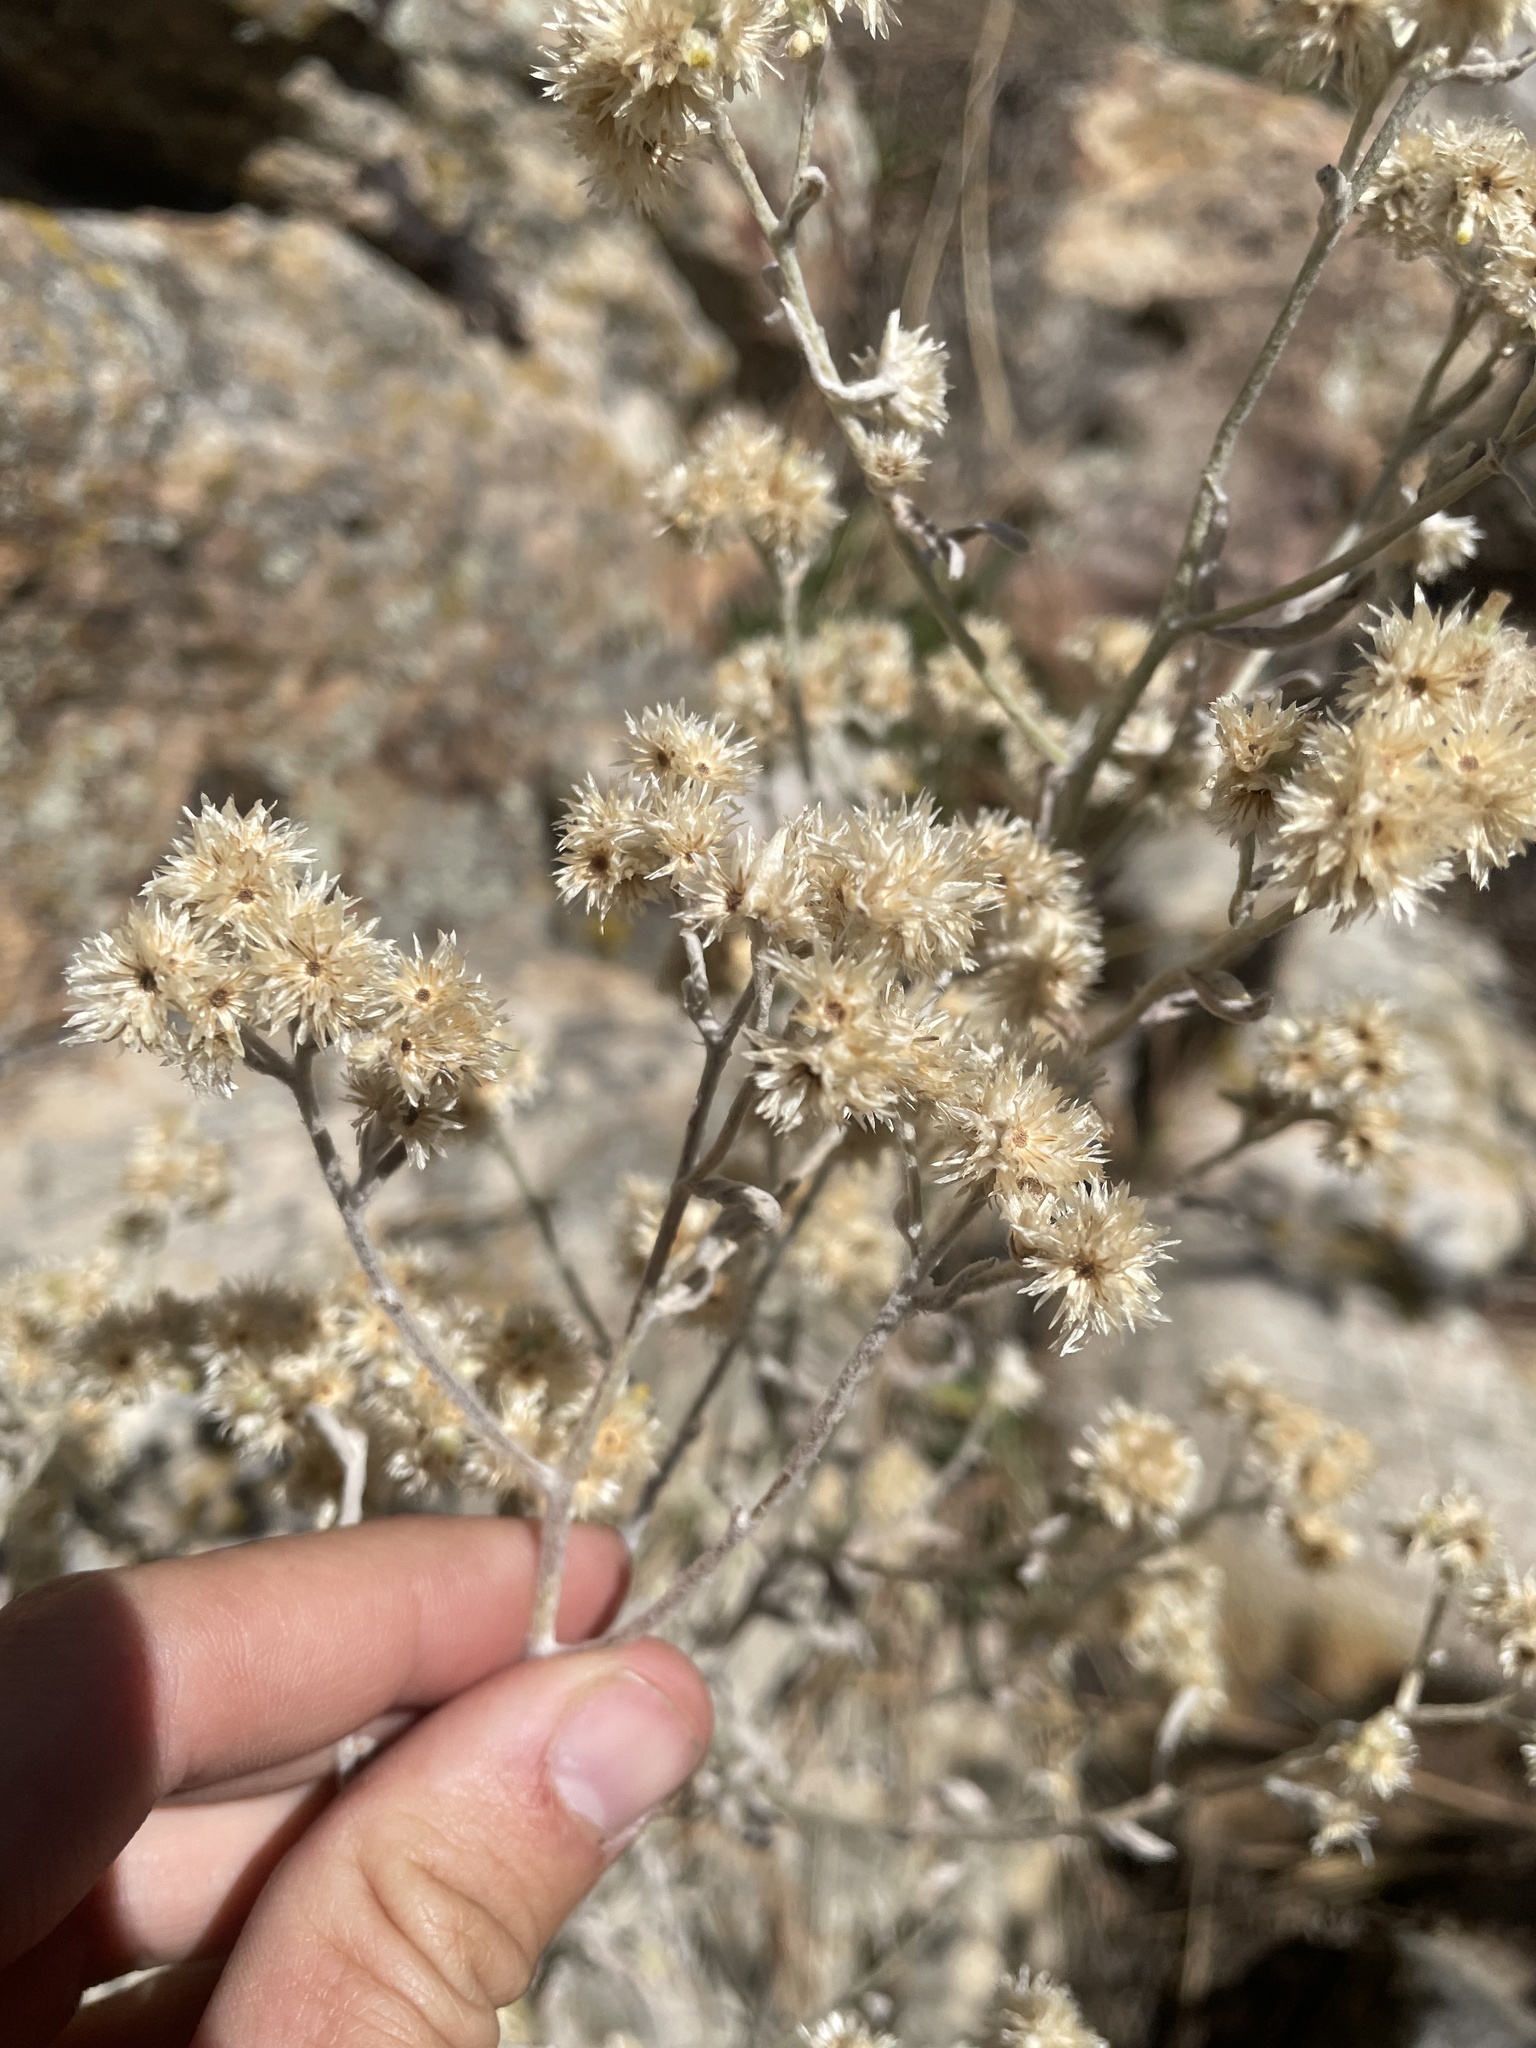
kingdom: Plantae
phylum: Tracheophyta
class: Magnoliopsida
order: Asterales
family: Asteraceae
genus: Pseudognaphalium
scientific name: Pseudognaphalium canescens
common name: Wright's rabbit-tobacco
